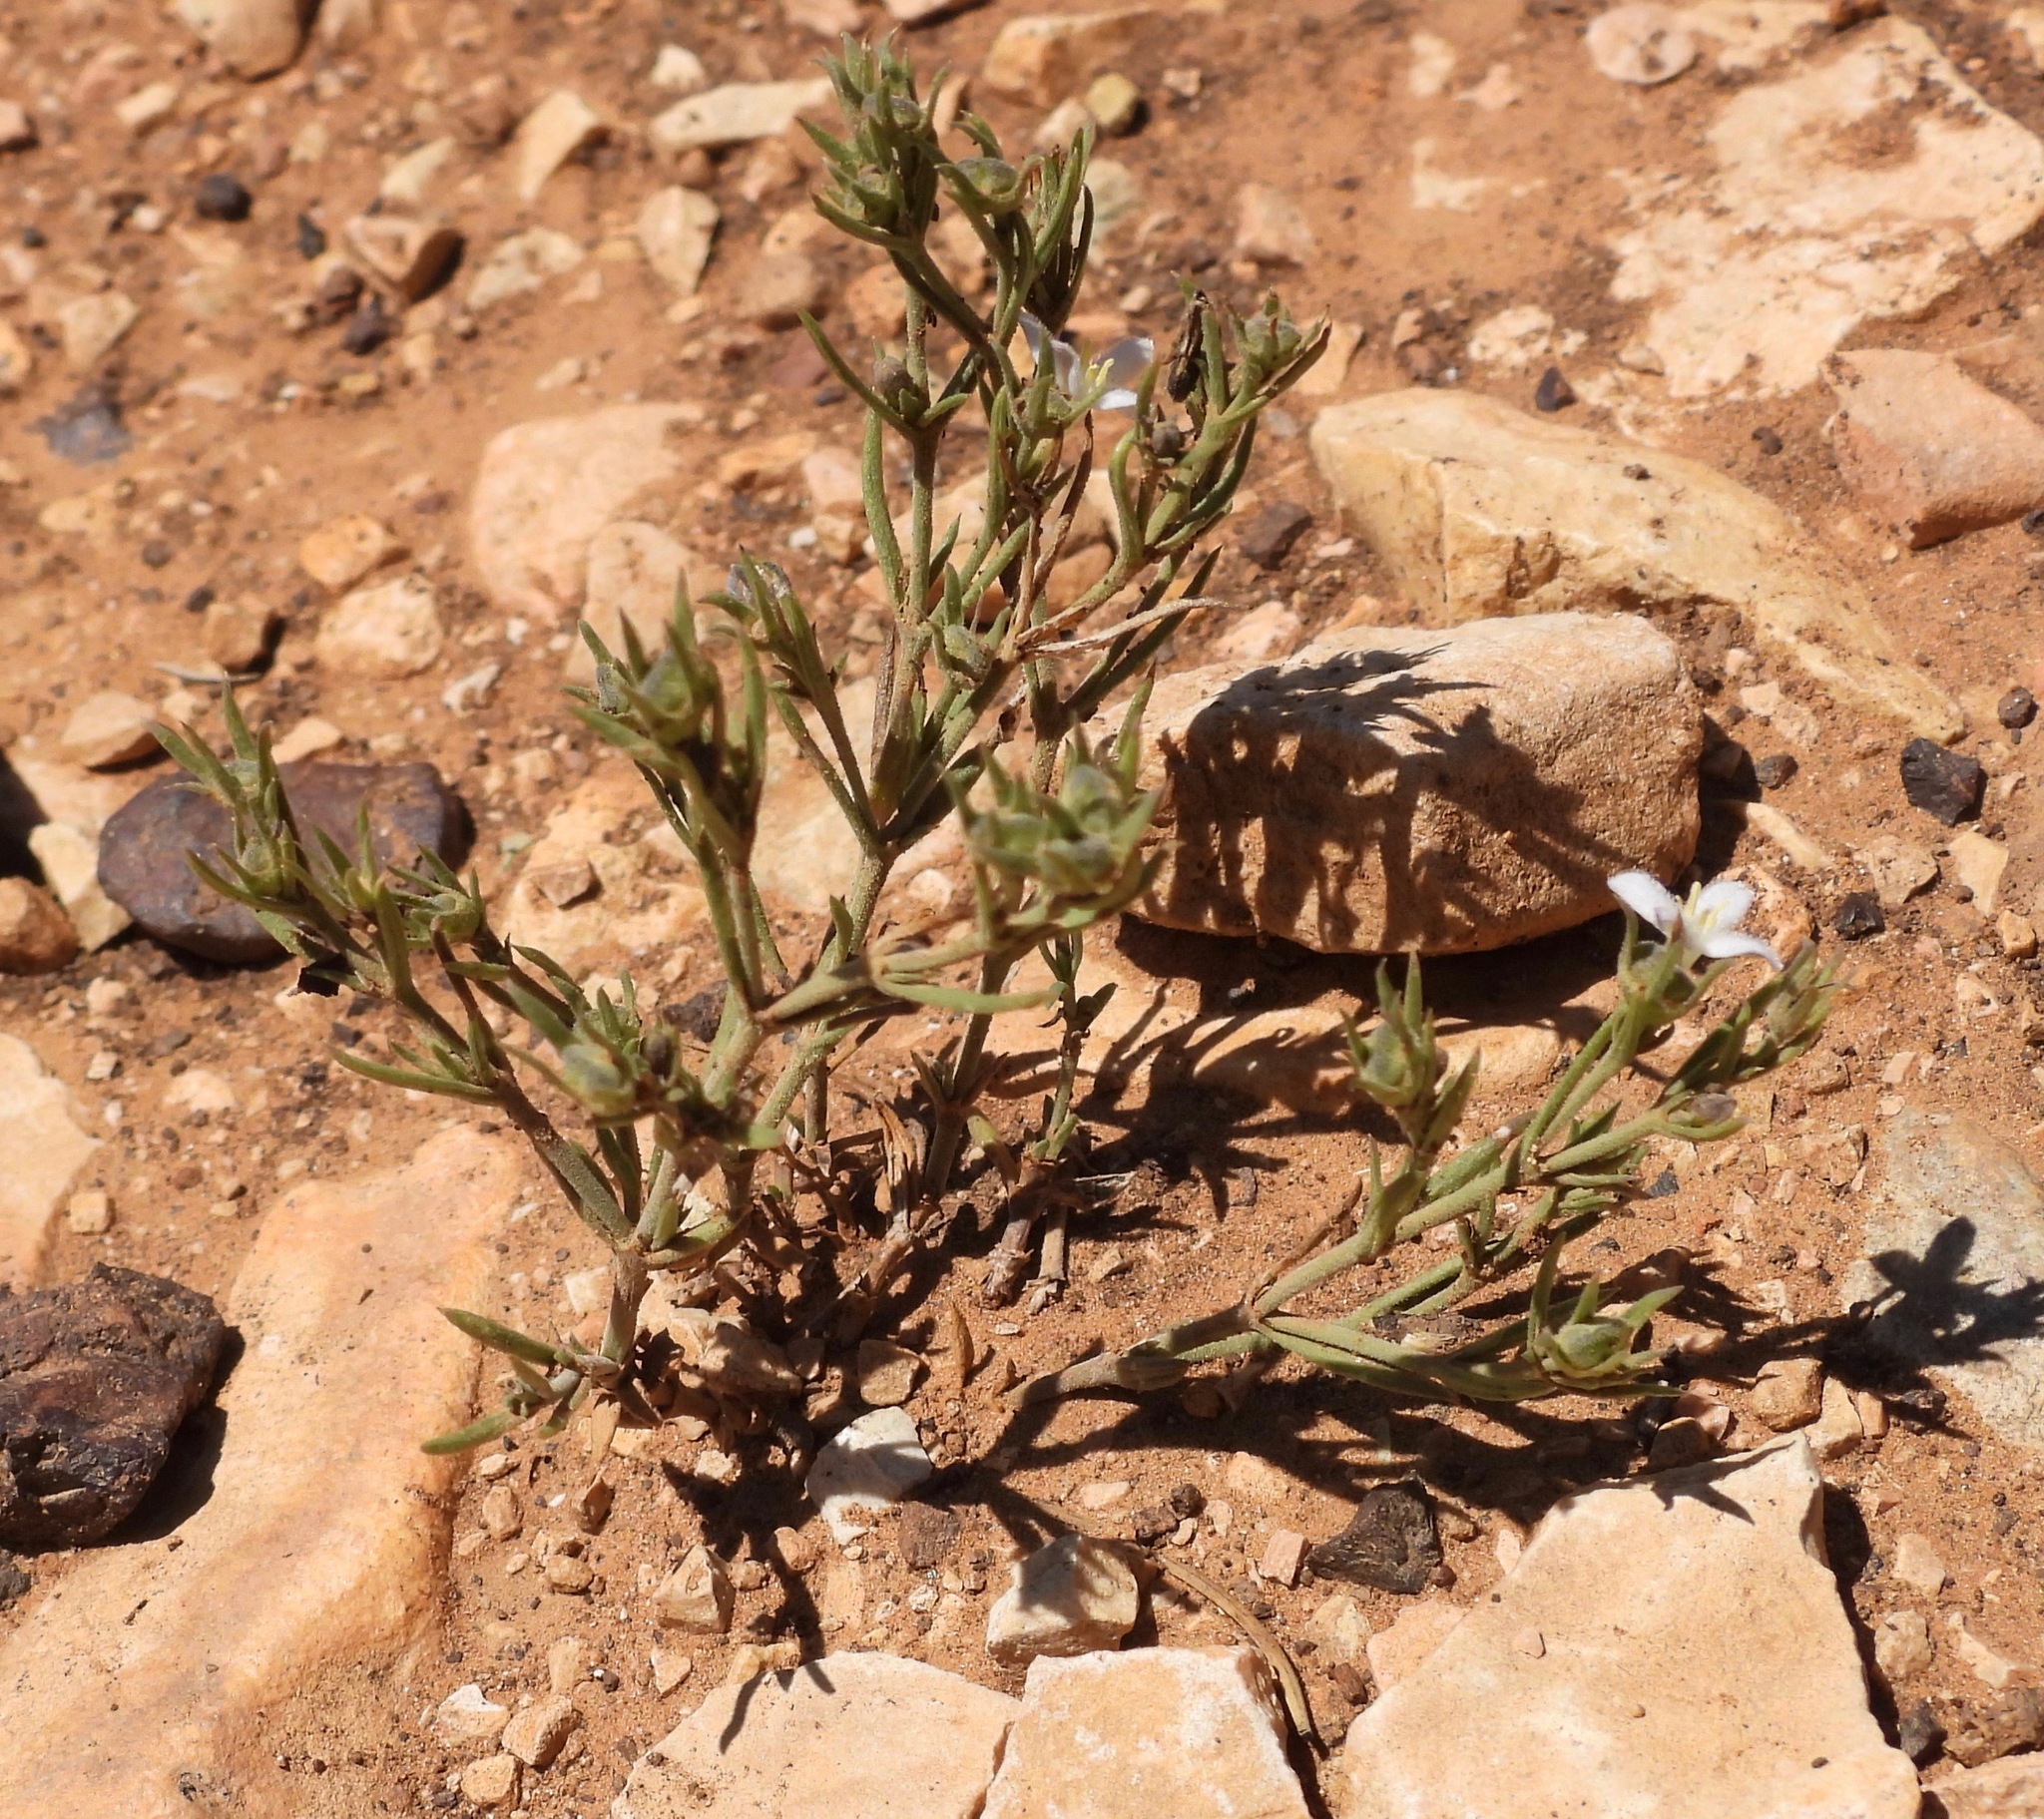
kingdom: Plantae
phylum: Tracheophyta
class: Magnoliopsida
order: Gentianales
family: Rubiaceae
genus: Houstonia
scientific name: Houstonia acerosa
